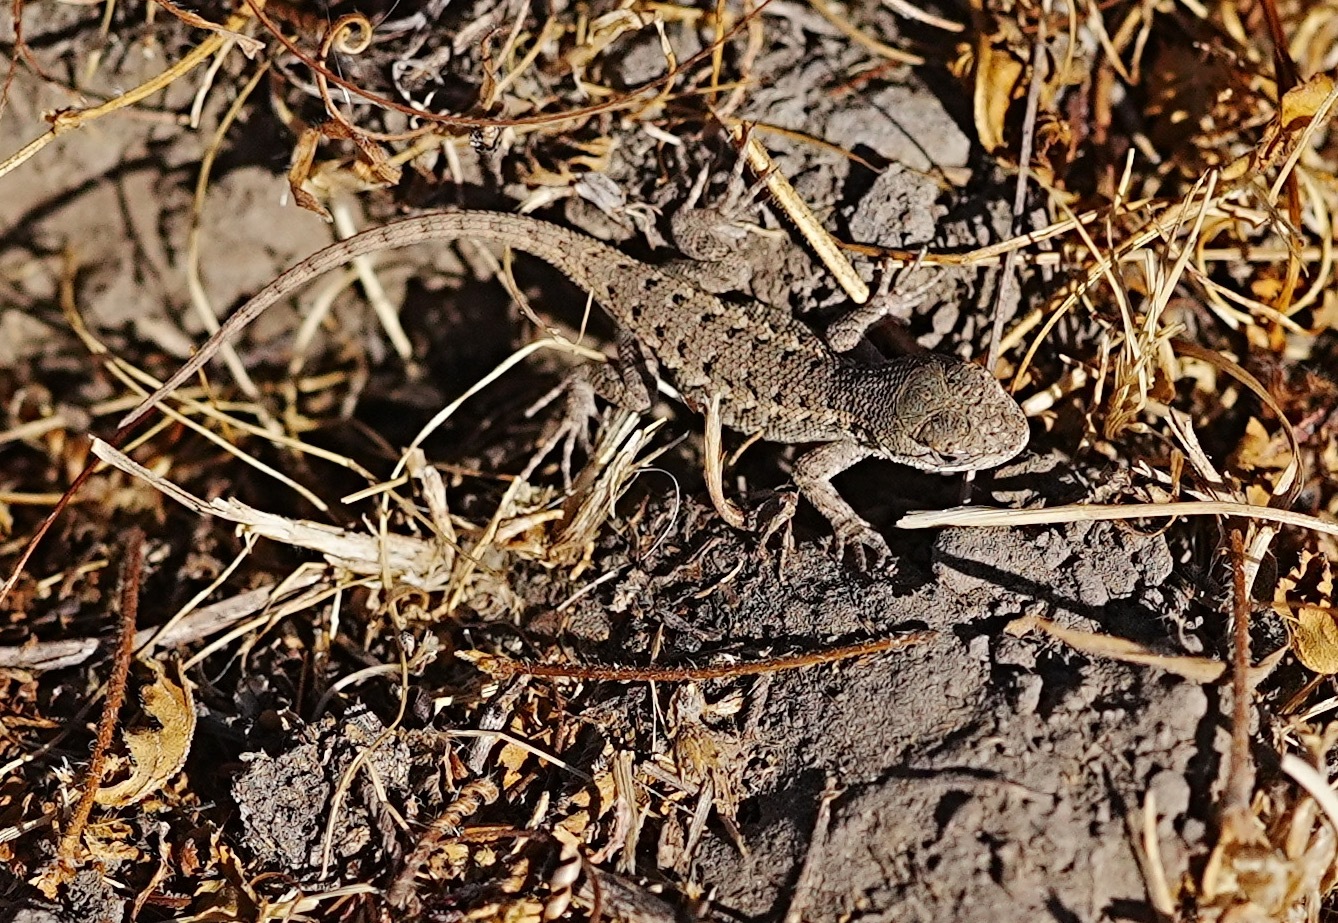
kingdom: Animalia
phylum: Chordata
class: Squamata
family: Phrynosomatidae
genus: Sceloporus
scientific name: Sceloporus occidentalis
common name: Western fence lizard
